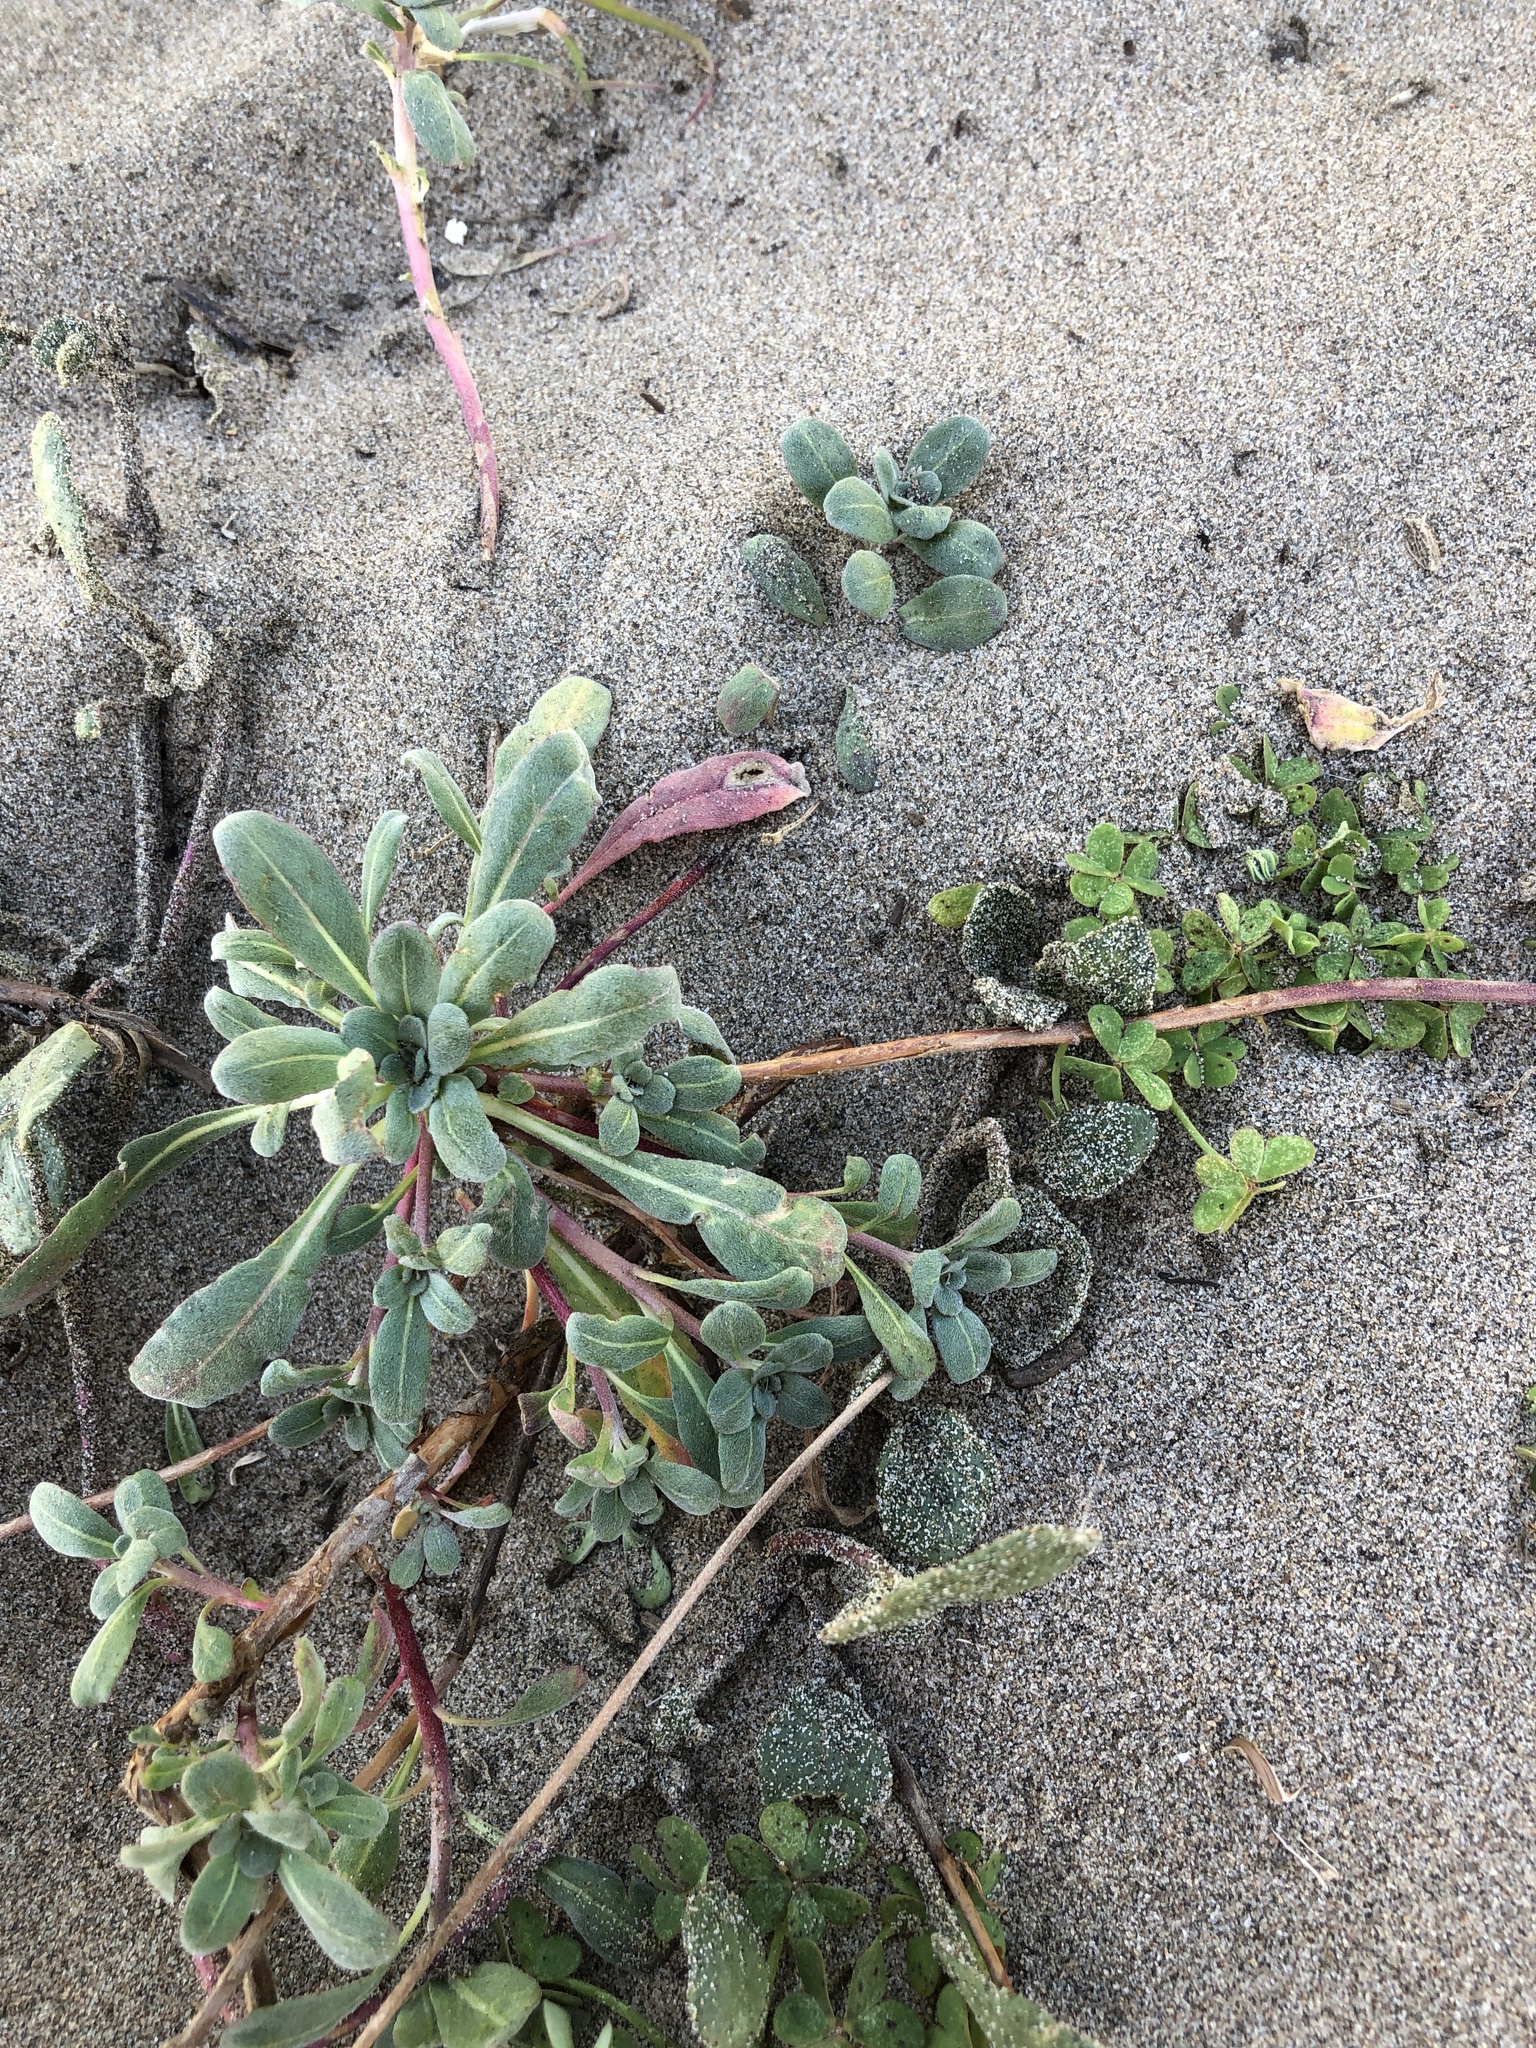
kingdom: Plantae
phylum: Tracheophyta
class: Magnoliopsida
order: Myrtales
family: Onagraceae
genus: Camissoniopsis
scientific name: Camissoniopsis cheiranthifolia
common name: Beach suncup
